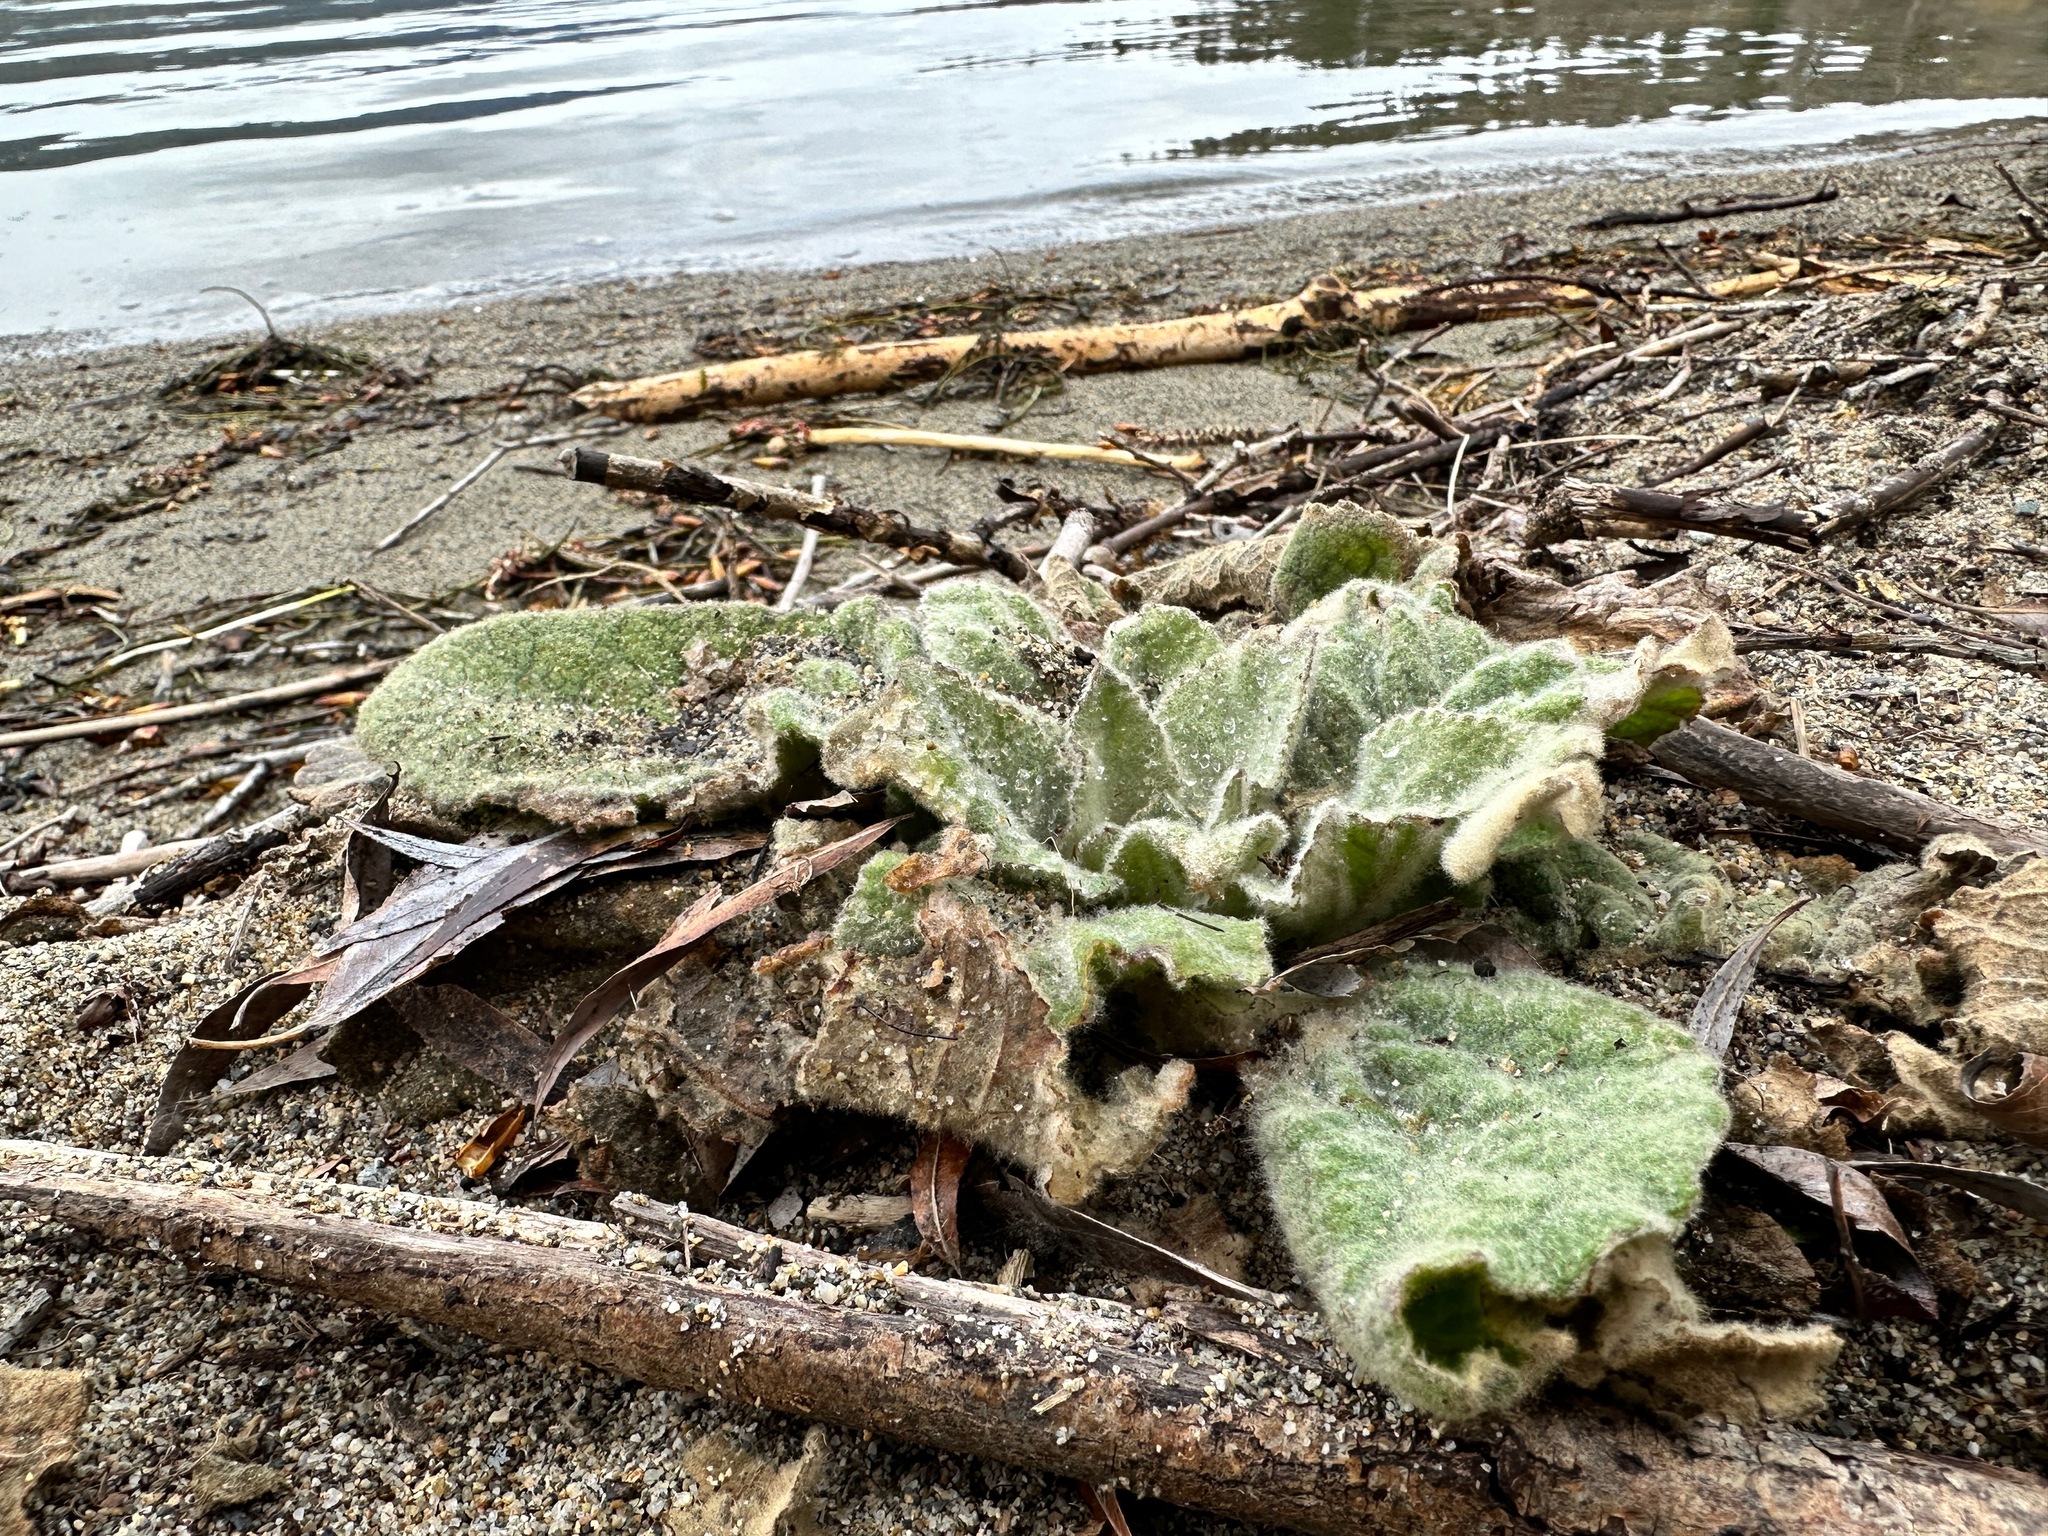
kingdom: Plantae
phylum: Tracheophyta
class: Magnoliopsida
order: Lamiales
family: Scrophulariaceae
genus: Verbascum
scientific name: Verbascum thapsus
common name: Common mullein
